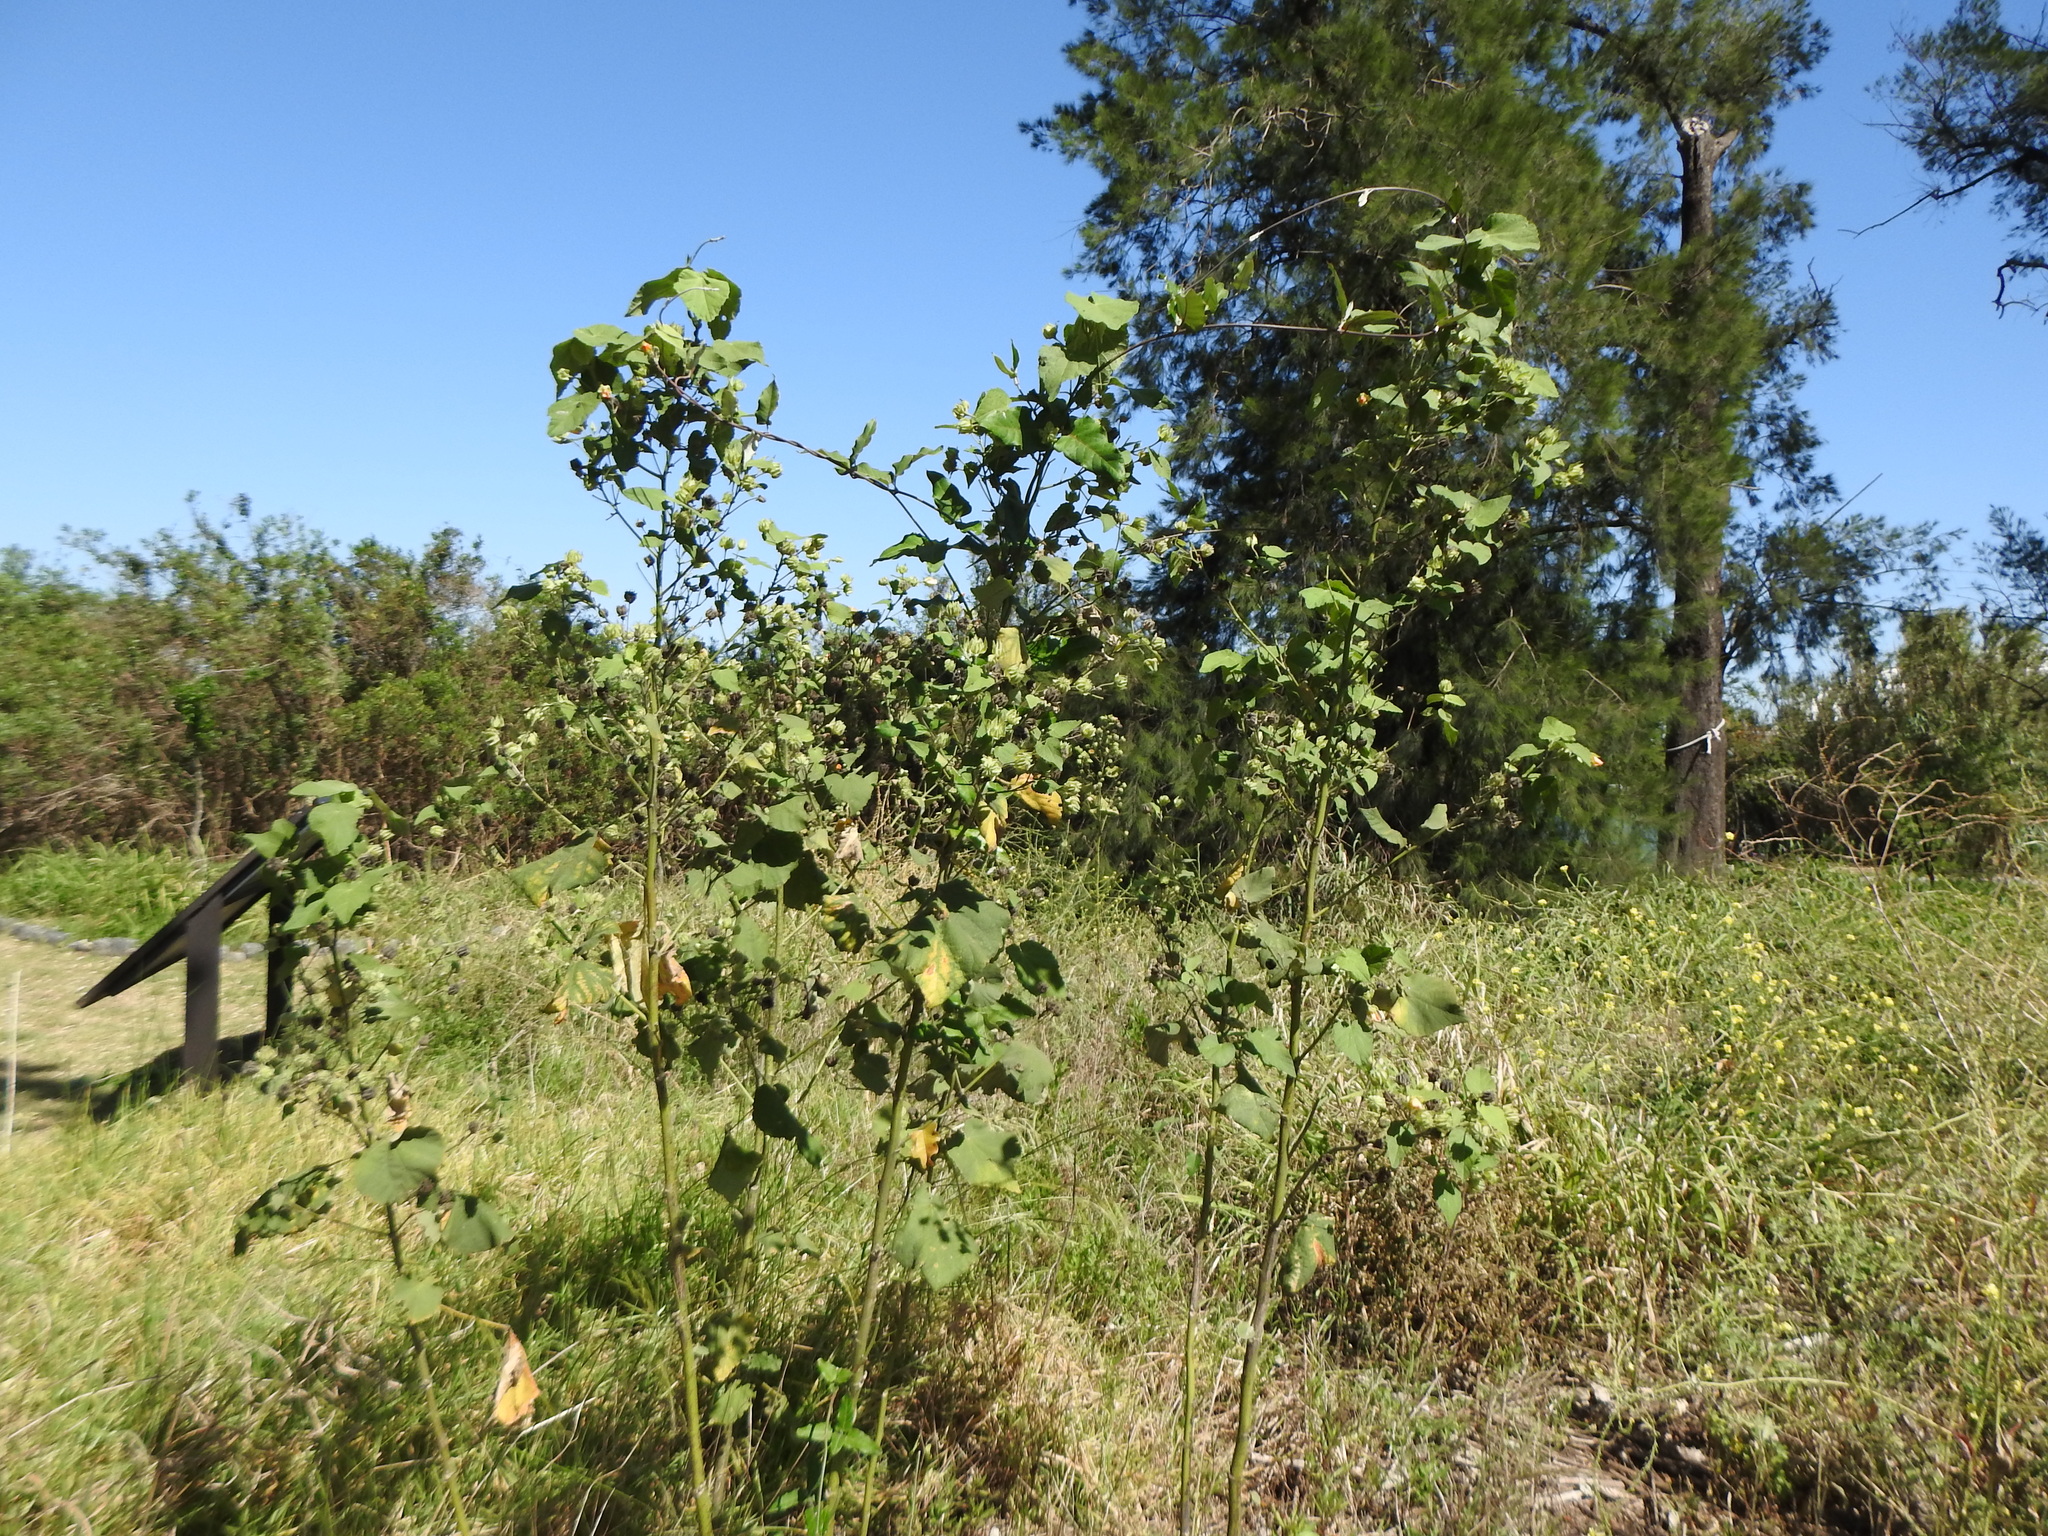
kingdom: Plantae
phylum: Tracheophyta
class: Magnoliopsida
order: Malvales
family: Malvaceae
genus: Abutilon
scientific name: Abutilon grandifolium
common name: Hairy abutilon
